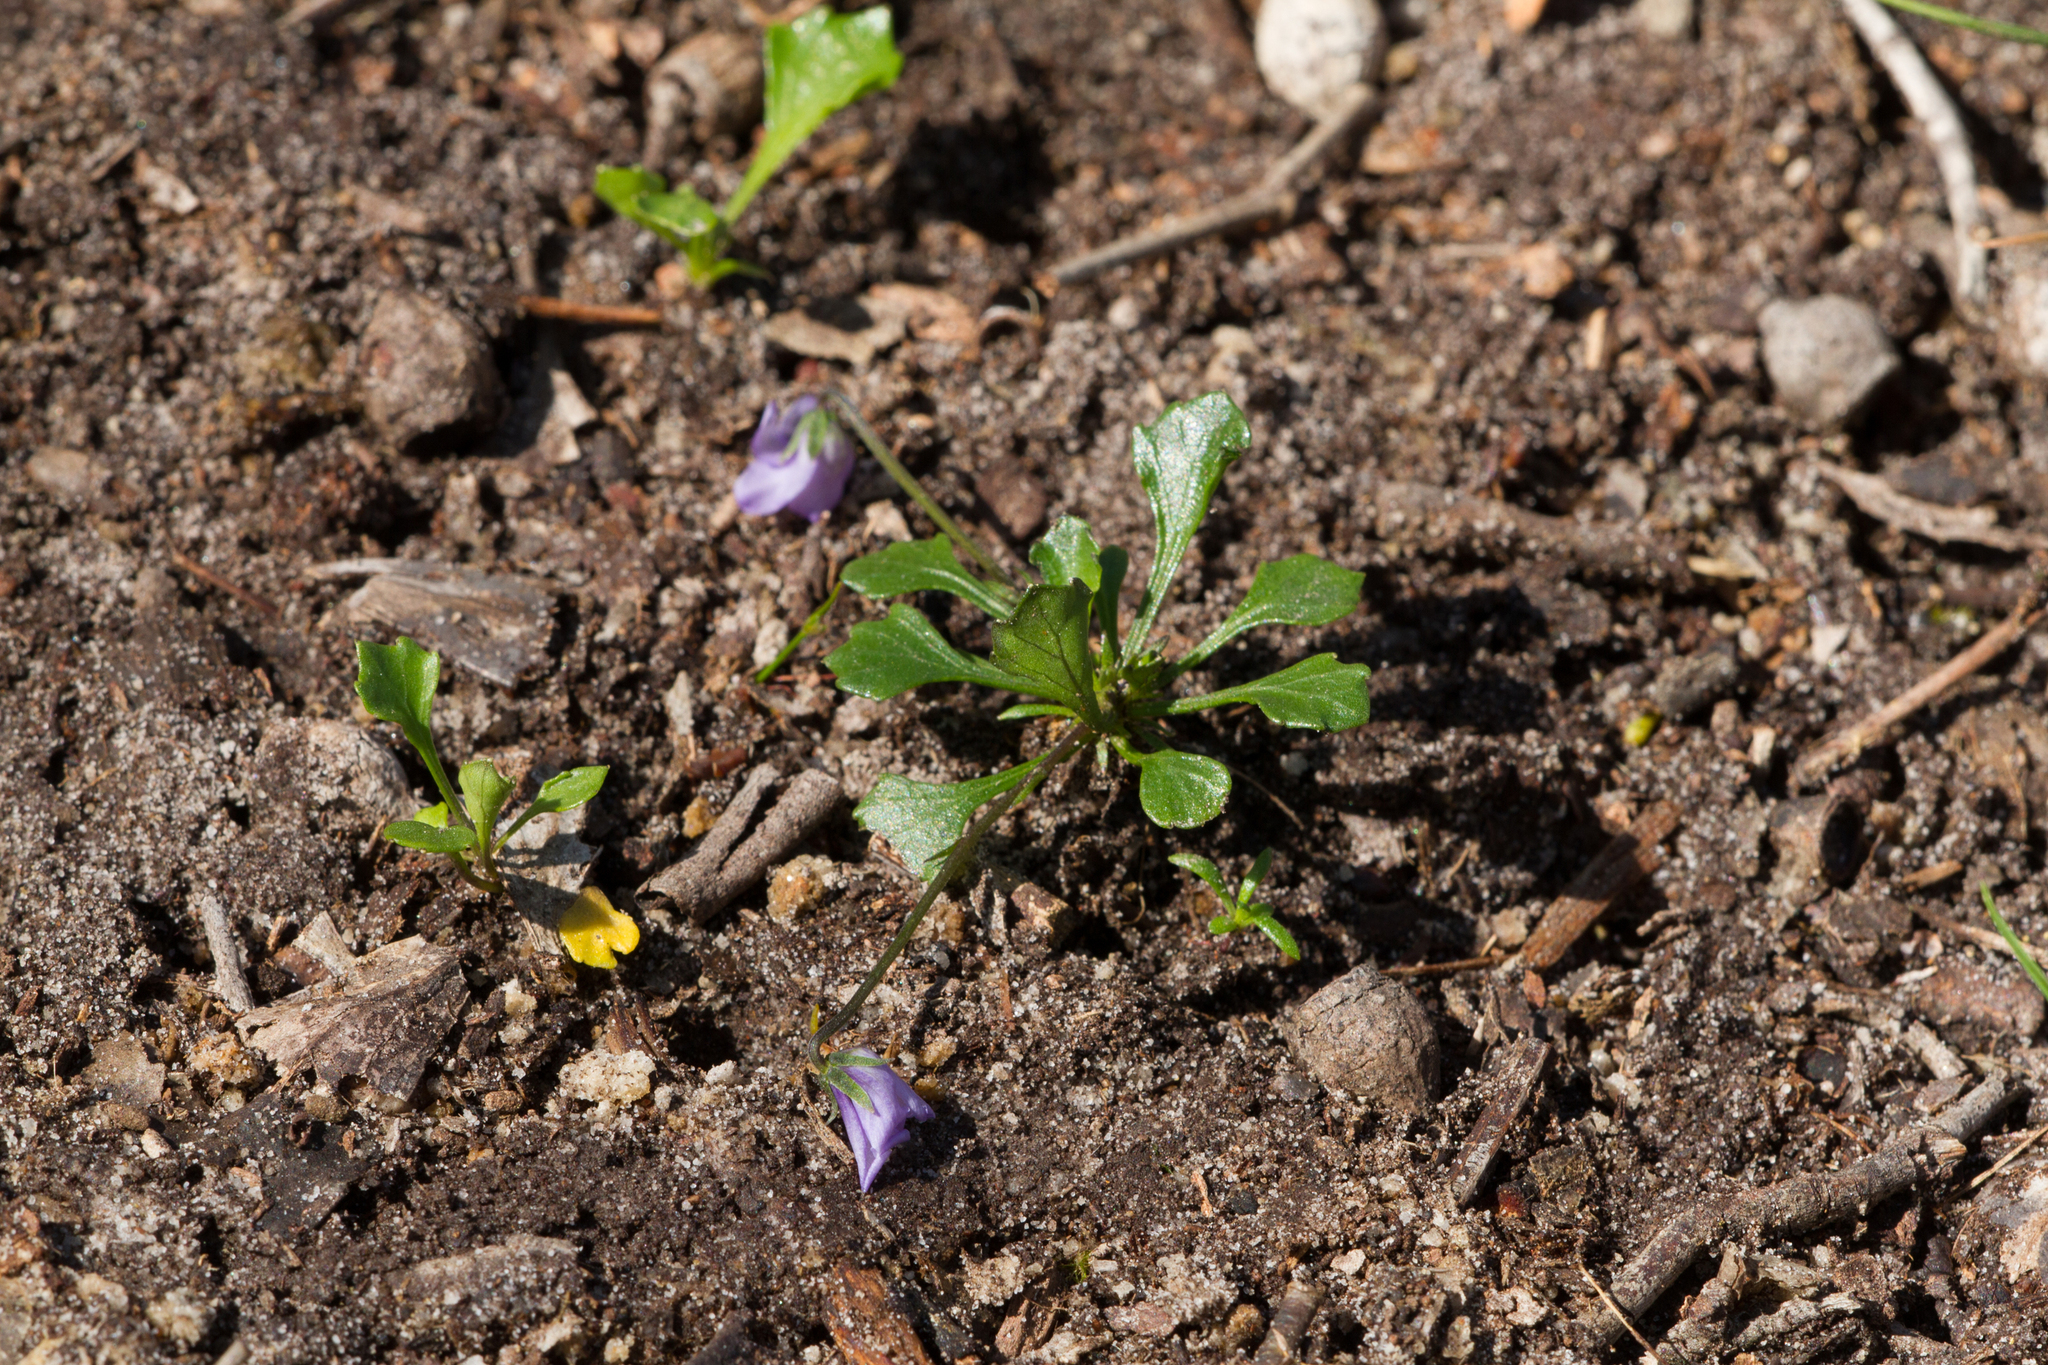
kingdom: Plantae
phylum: Tracheophyta
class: Magnoliopsida
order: Malpighiales
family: Violaceae
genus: Viola
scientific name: Viola sieberiana
